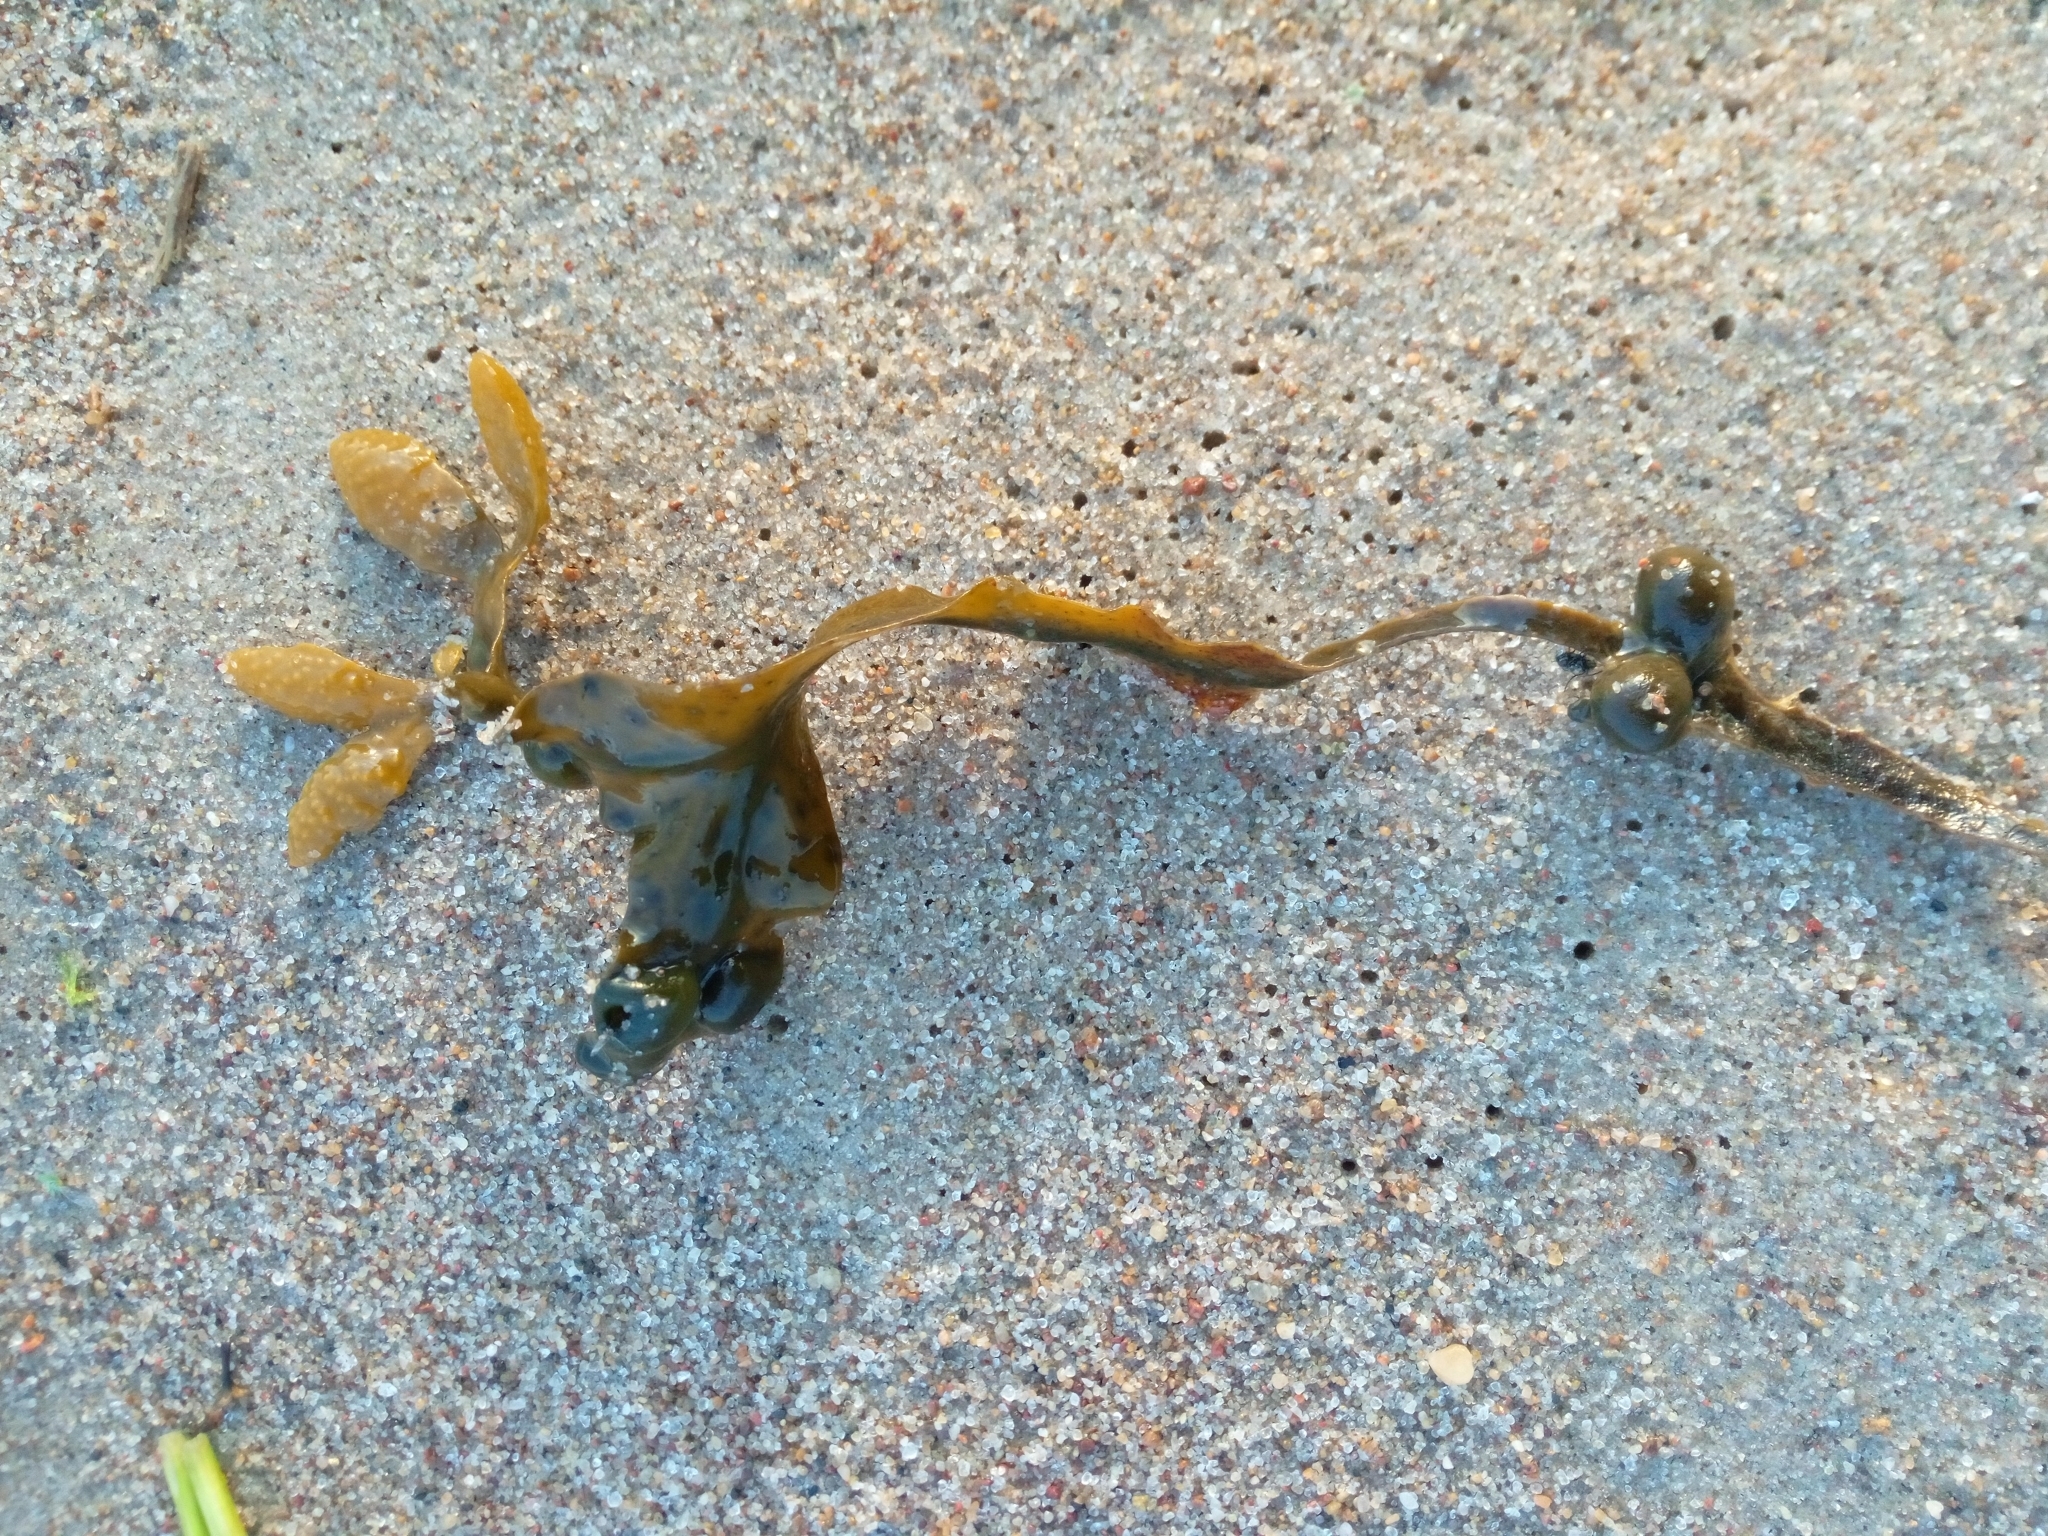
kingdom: Chromista
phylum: Ochrophyta
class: Phaeophyceae
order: Fucales
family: Fucaceae
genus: Fucus
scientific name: Fucus vesiculosus
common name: Bladder wrack
